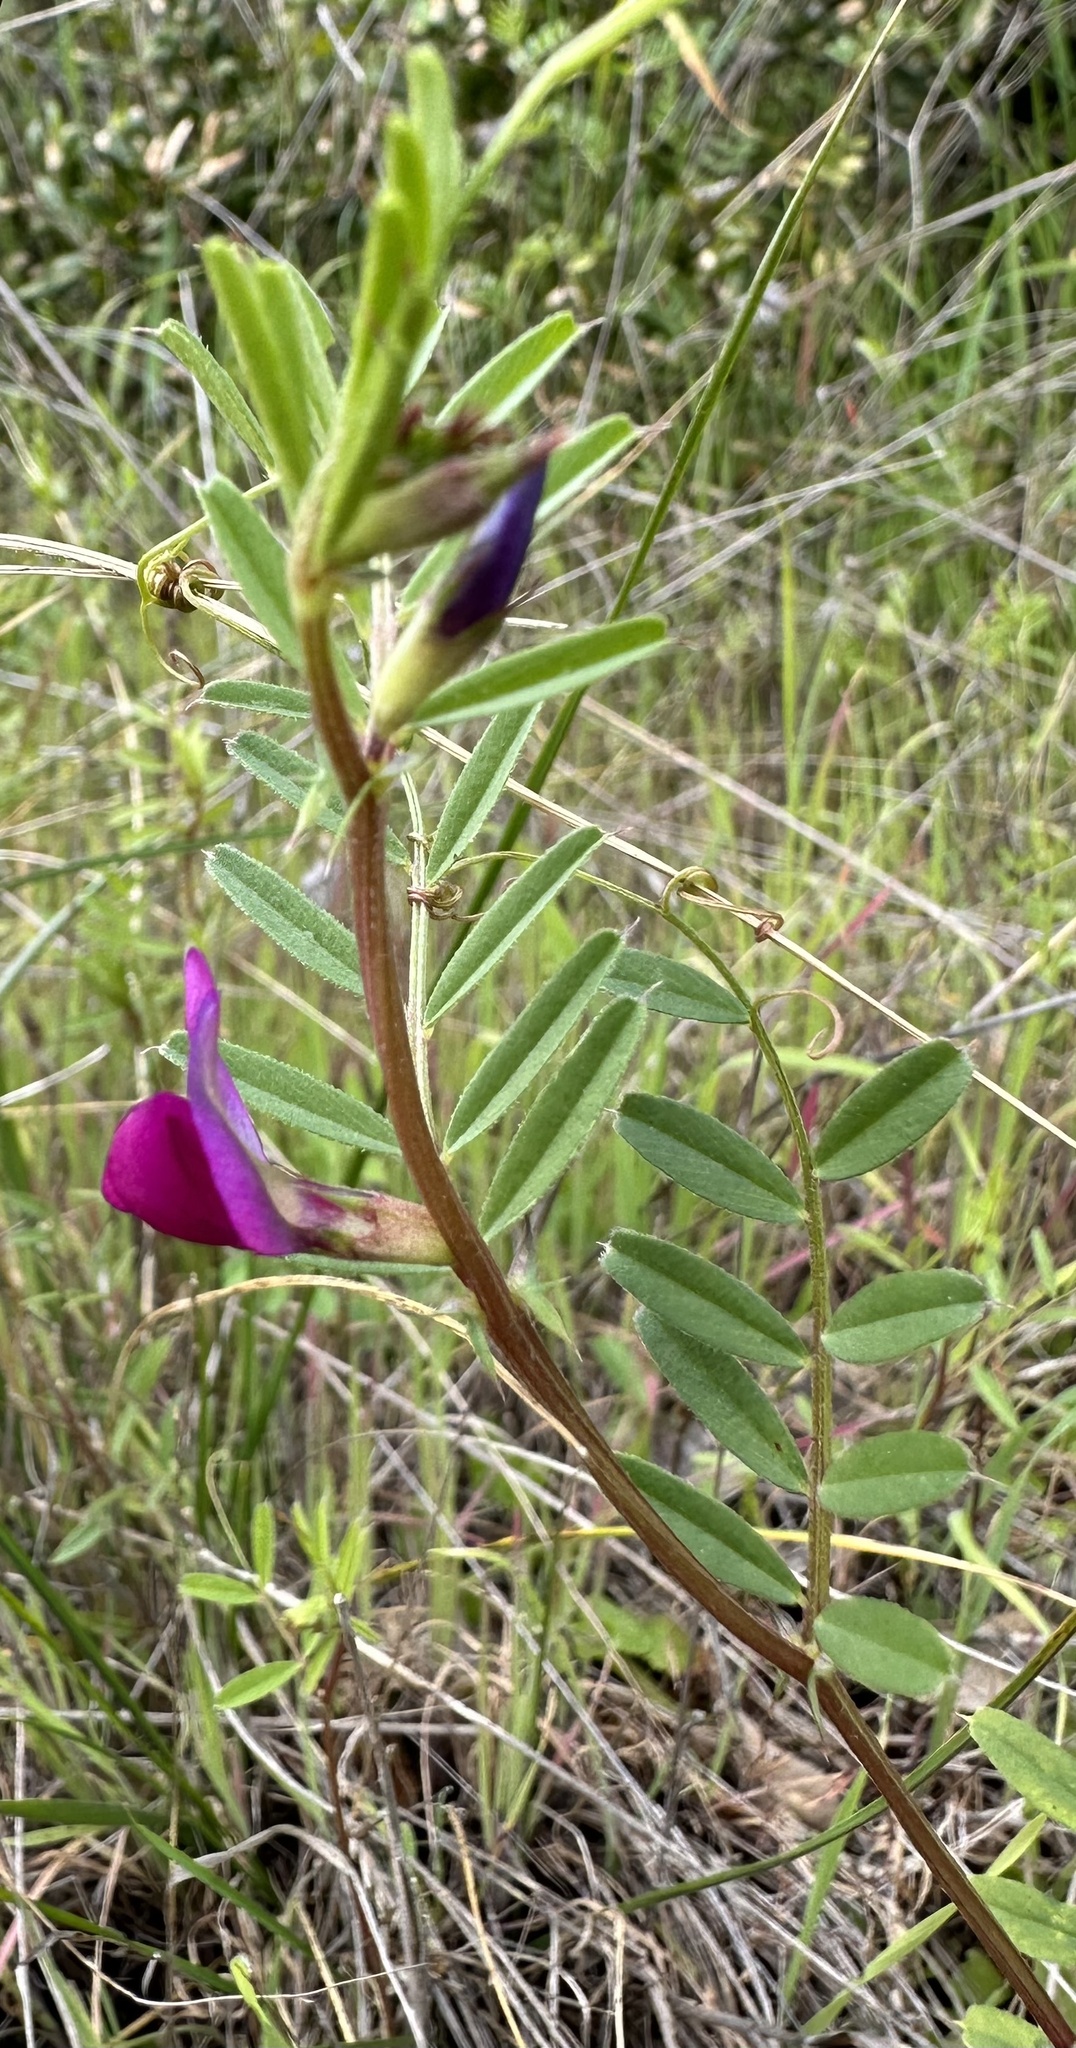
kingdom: Plantae
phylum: Tracheophyta
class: Magnoliopsida
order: Fabales
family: Fabaceae
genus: Vicia
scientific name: Vicia sativa
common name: Garden vetch
